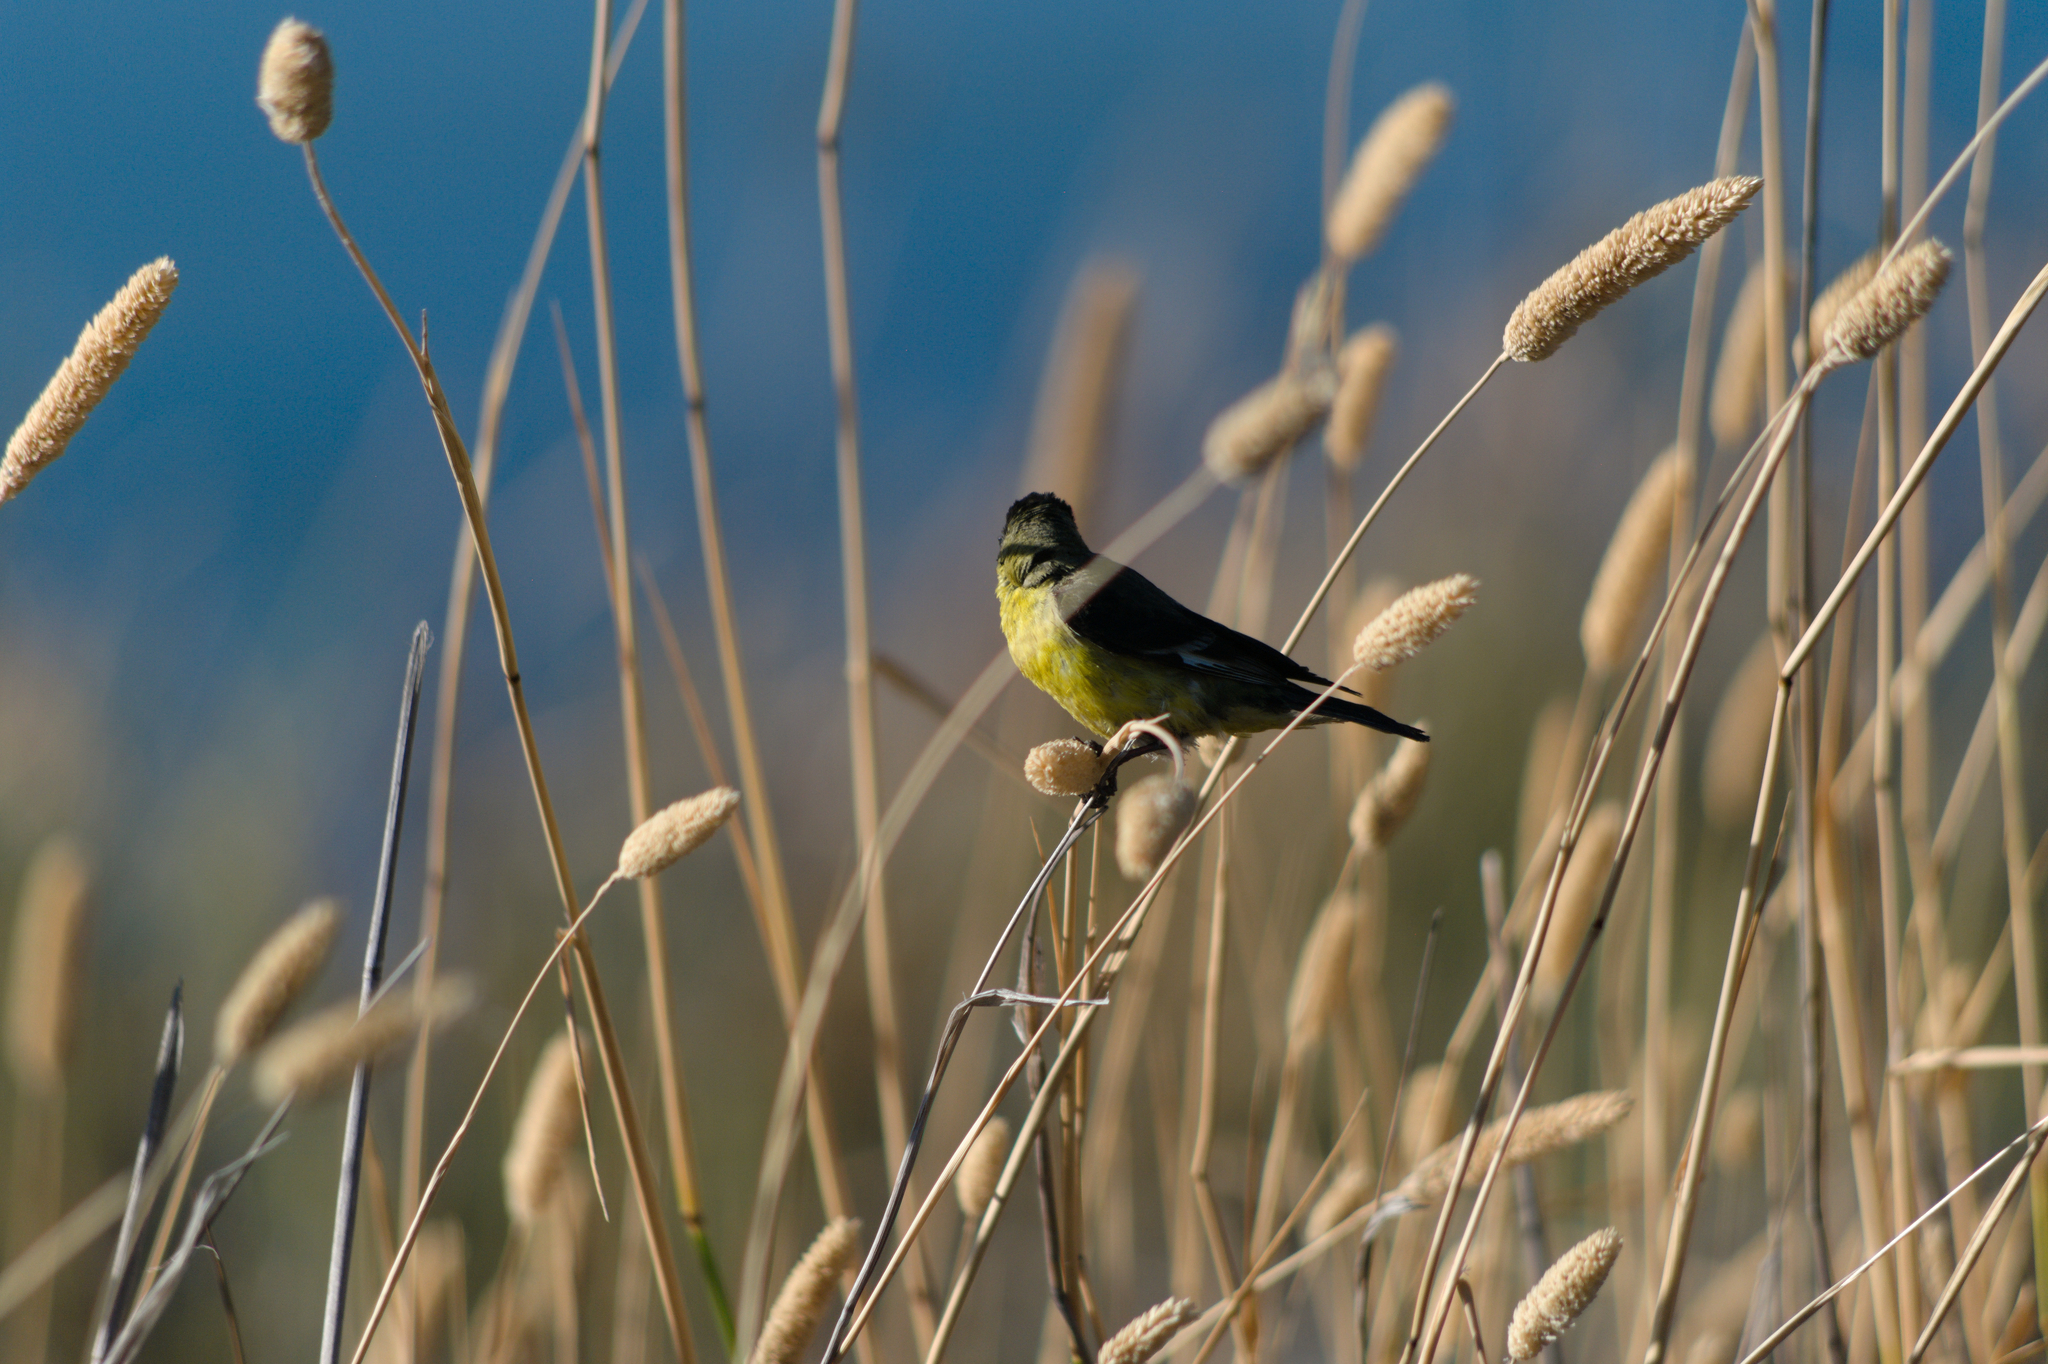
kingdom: Animalia
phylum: Chordata
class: Aves
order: Passeriformes
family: Fringillidae
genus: Spinus
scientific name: Spinus psaltria
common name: Lesser goldfinch
